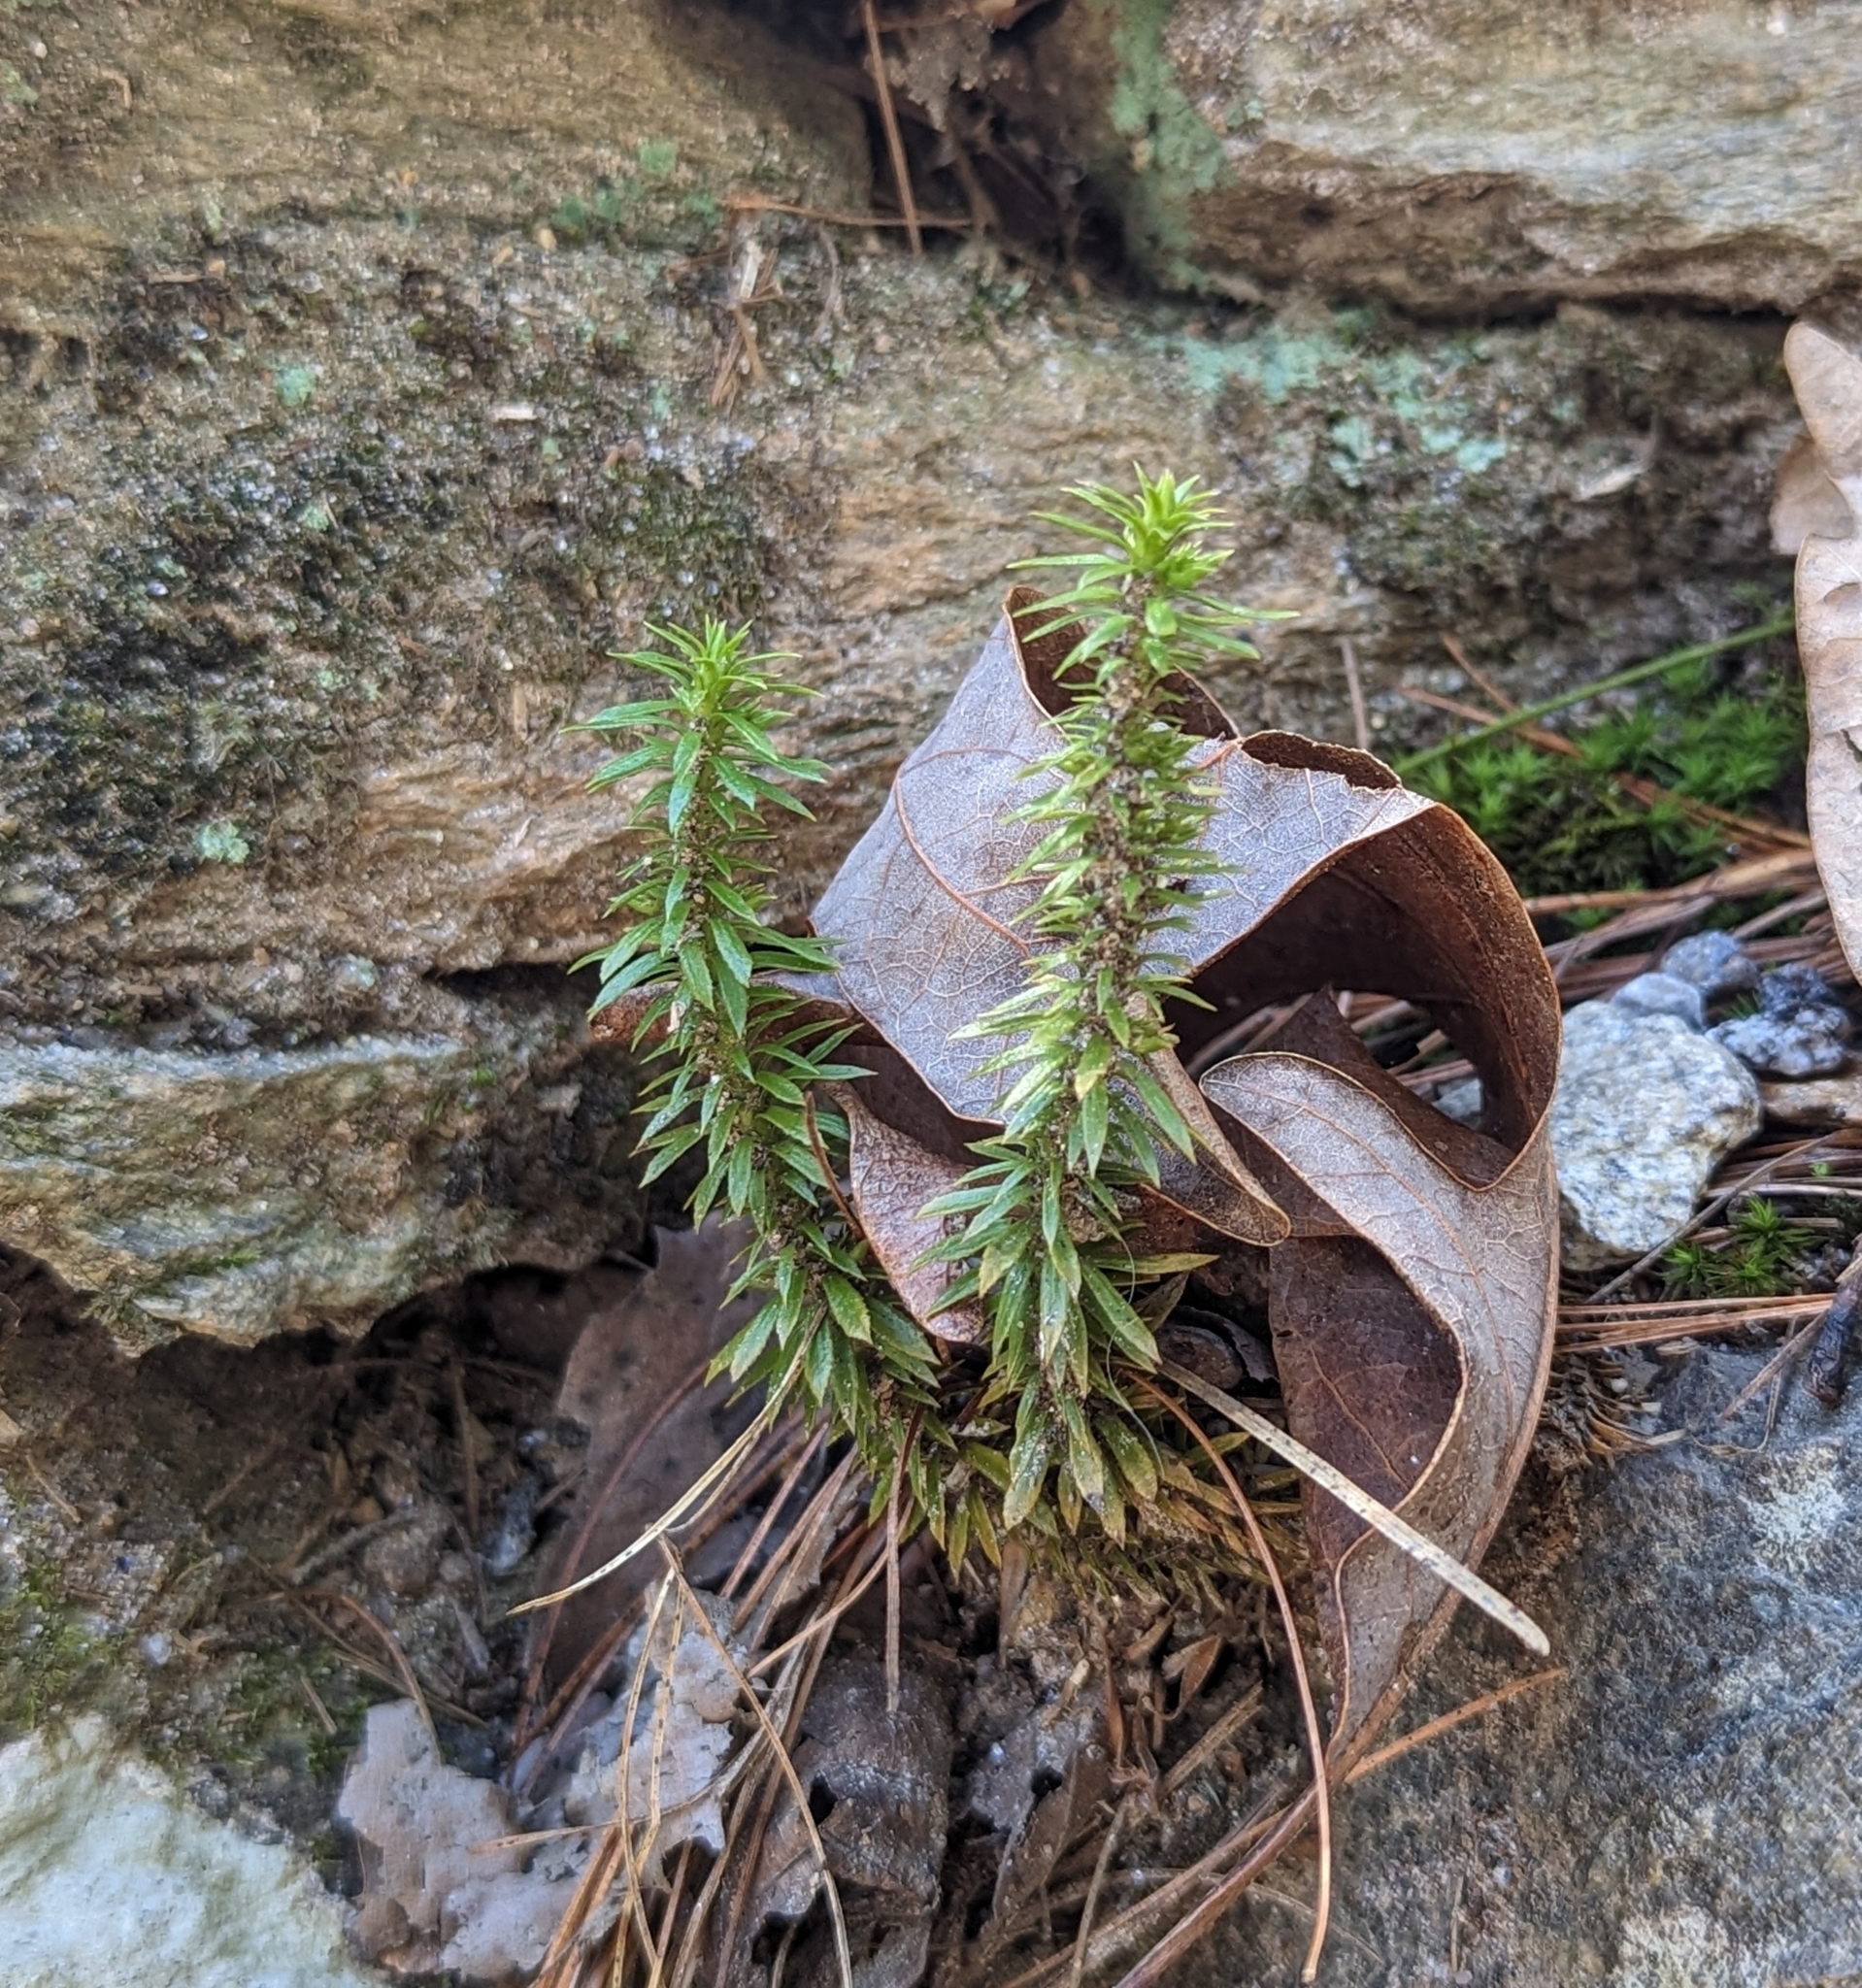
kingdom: Plantae
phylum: Tracheophyta
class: Lycopodiopsida
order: Lycopodiales
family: Lycopodiaceae
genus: Huperzia
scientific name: Huperzia lucidula
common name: Shining clubmoss
